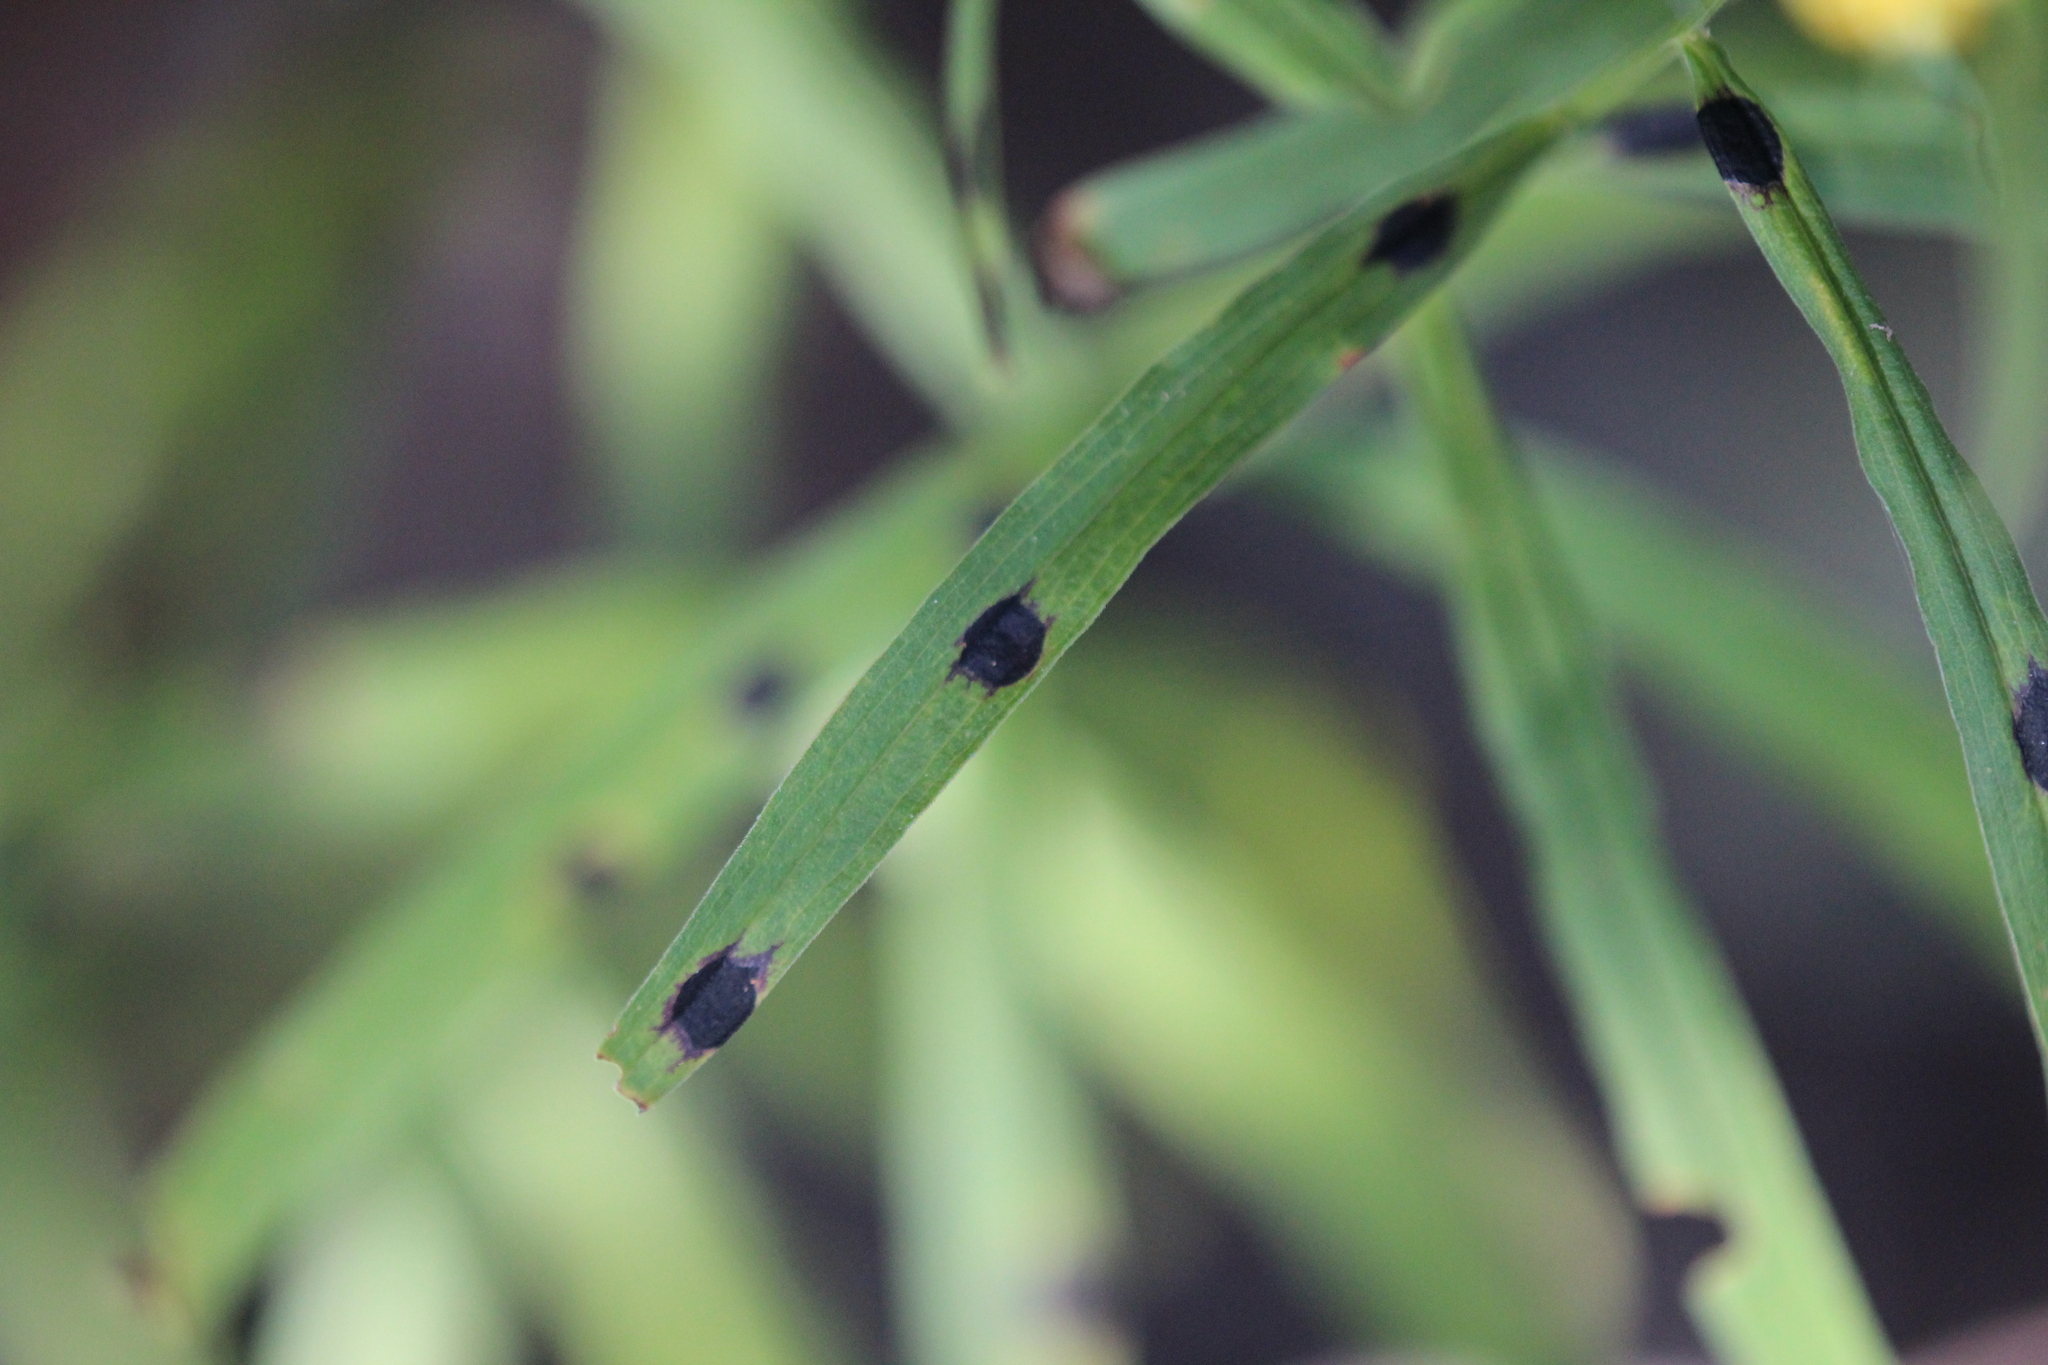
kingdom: Animalia
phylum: Arthropoda
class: Insecta
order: Diptera
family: Cecidomyiidae
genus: Asteromyia
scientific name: Asteromyia euthamiae
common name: Euthamia leaf gall midge
